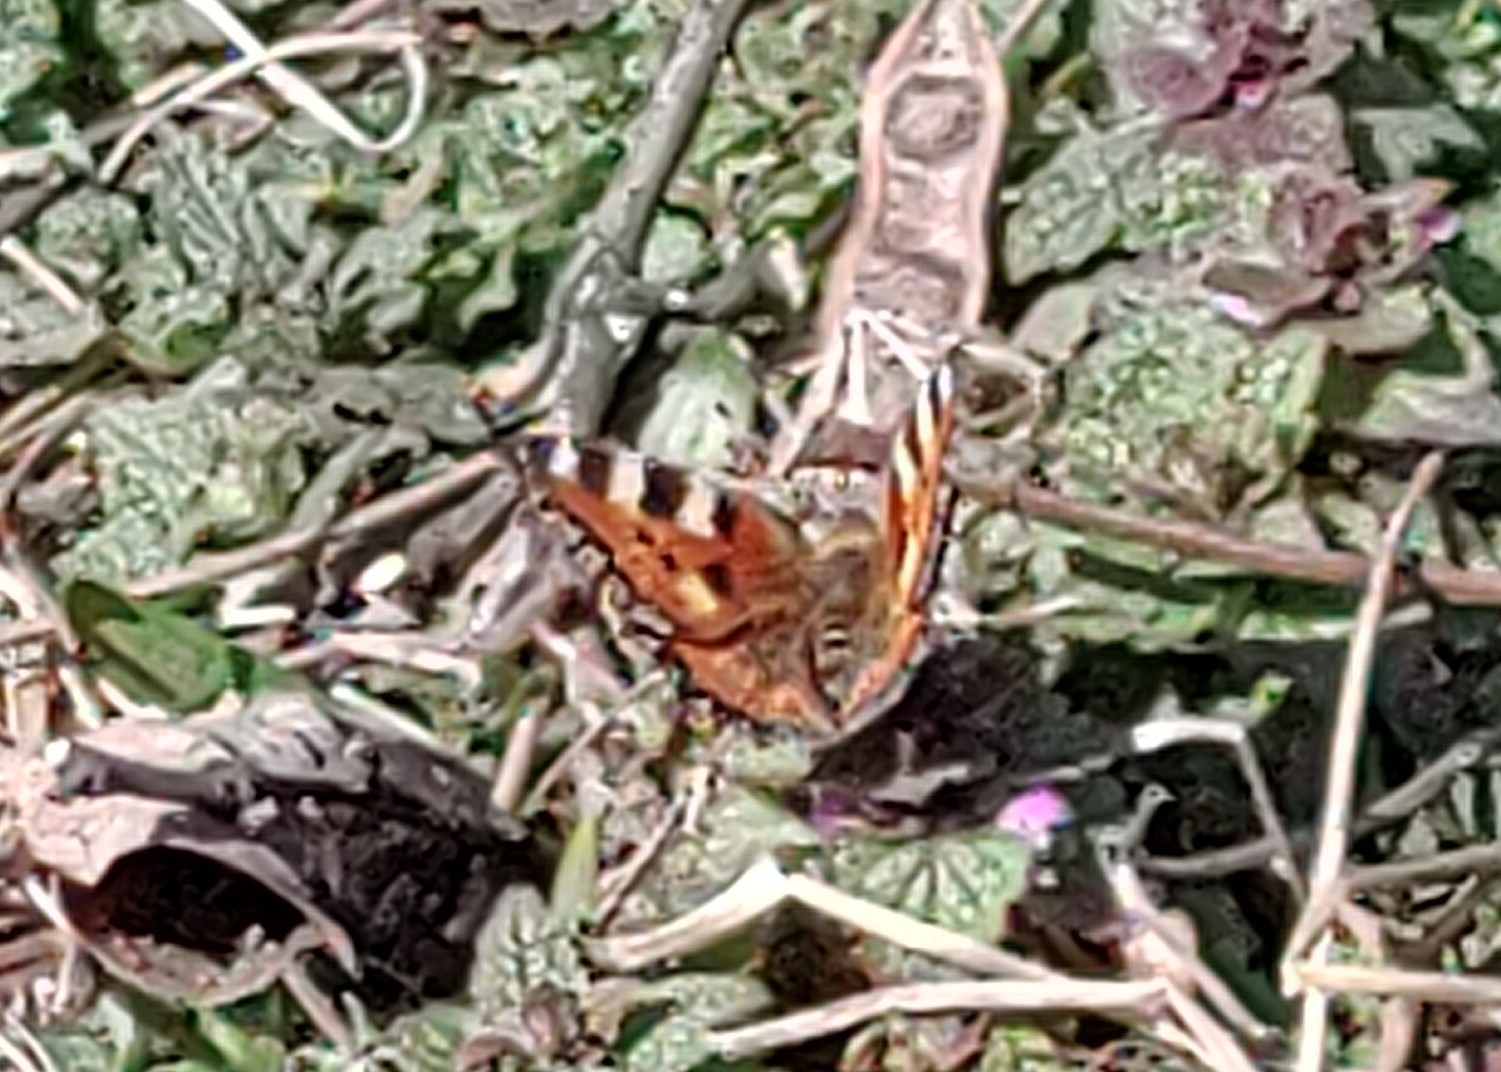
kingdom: Animalia
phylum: Arthropoda
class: Insecta
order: Lepidoptera
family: Nymphalidae
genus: Aglais
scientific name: Aglais urticae
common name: Small tortoiseshell
